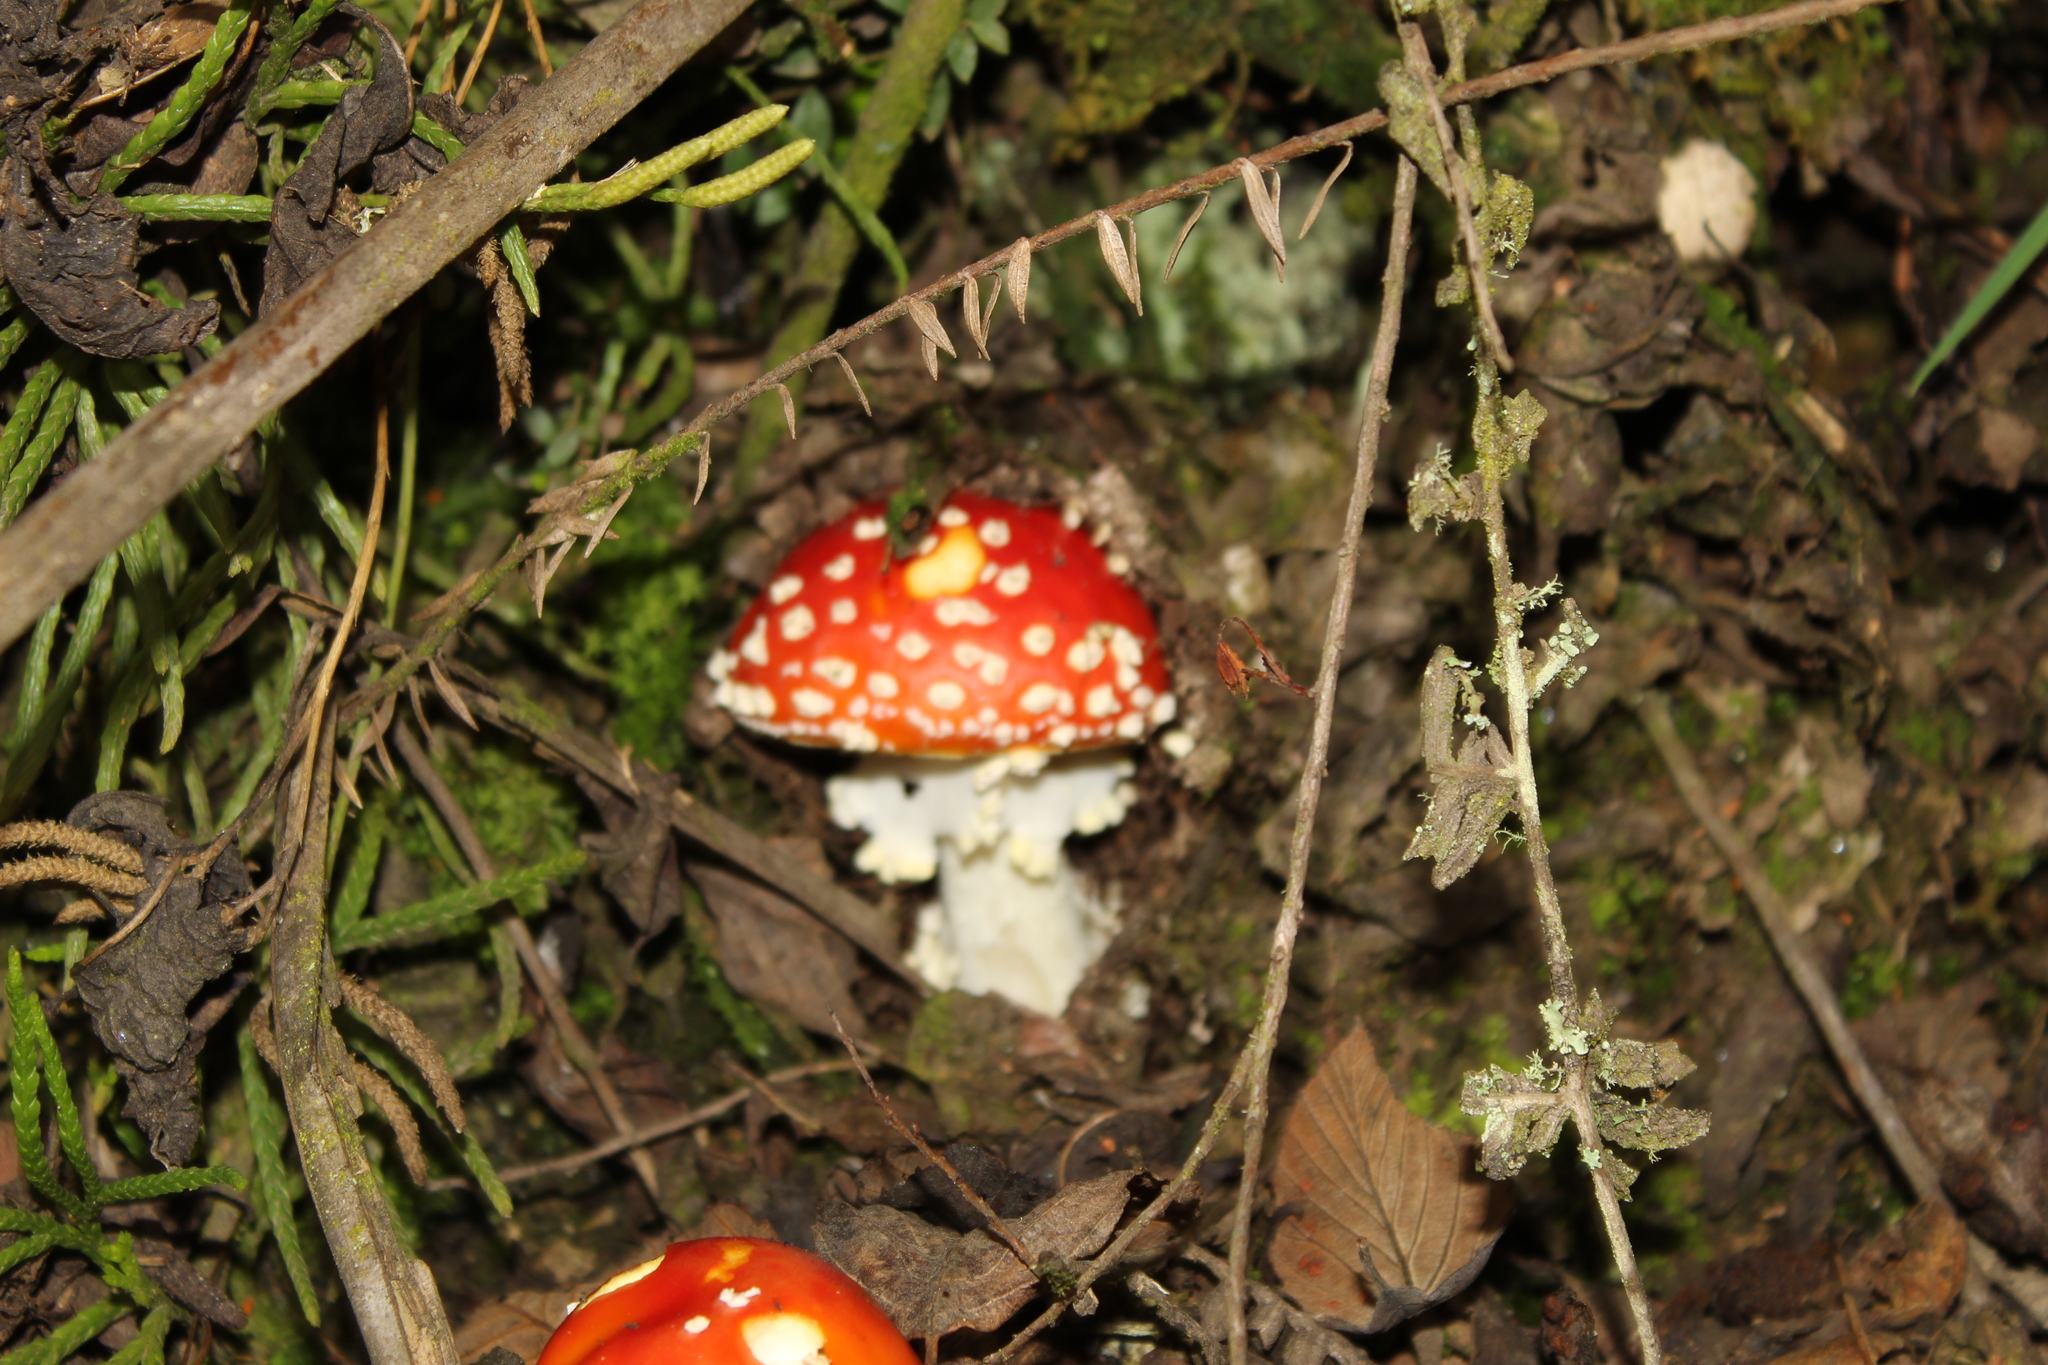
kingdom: Fungi
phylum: Basidiomycota
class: Agaricomycetes
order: Agaricales
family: Amanitaceae
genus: Amanita
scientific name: Amanita muscaria
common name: Fly agaric
